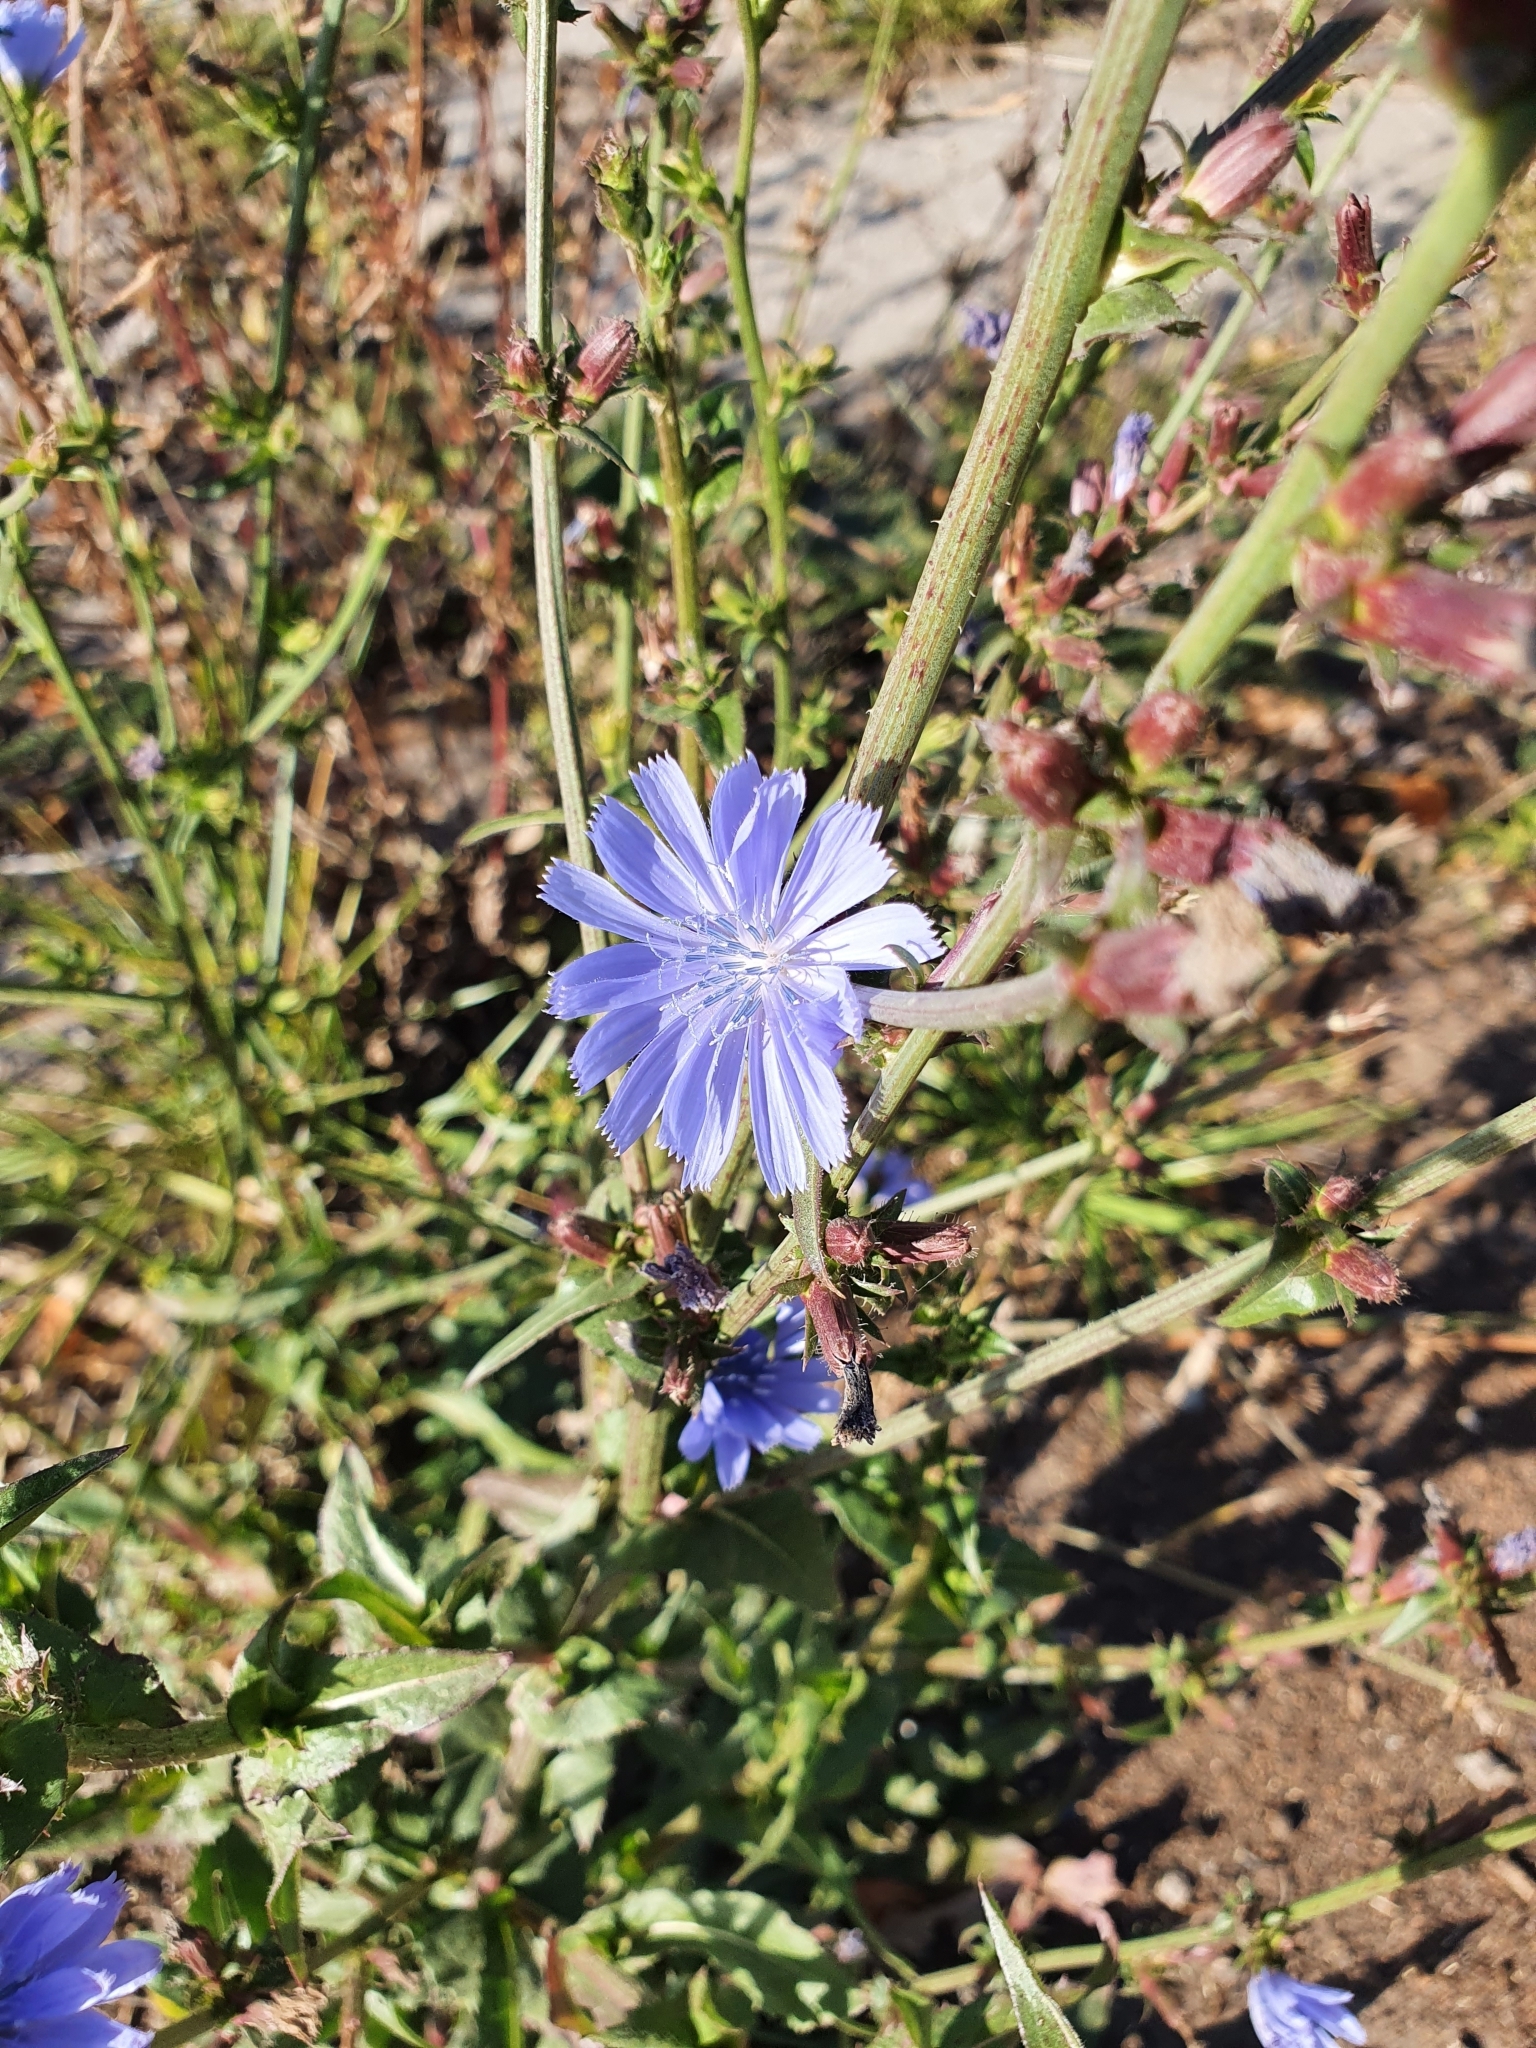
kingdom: Plantae
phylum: Tracheophyta
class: Magnoliopsida
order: Asterales
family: Asteraceae
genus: Cichorium
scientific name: Cichorium intybus
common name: Chicory
